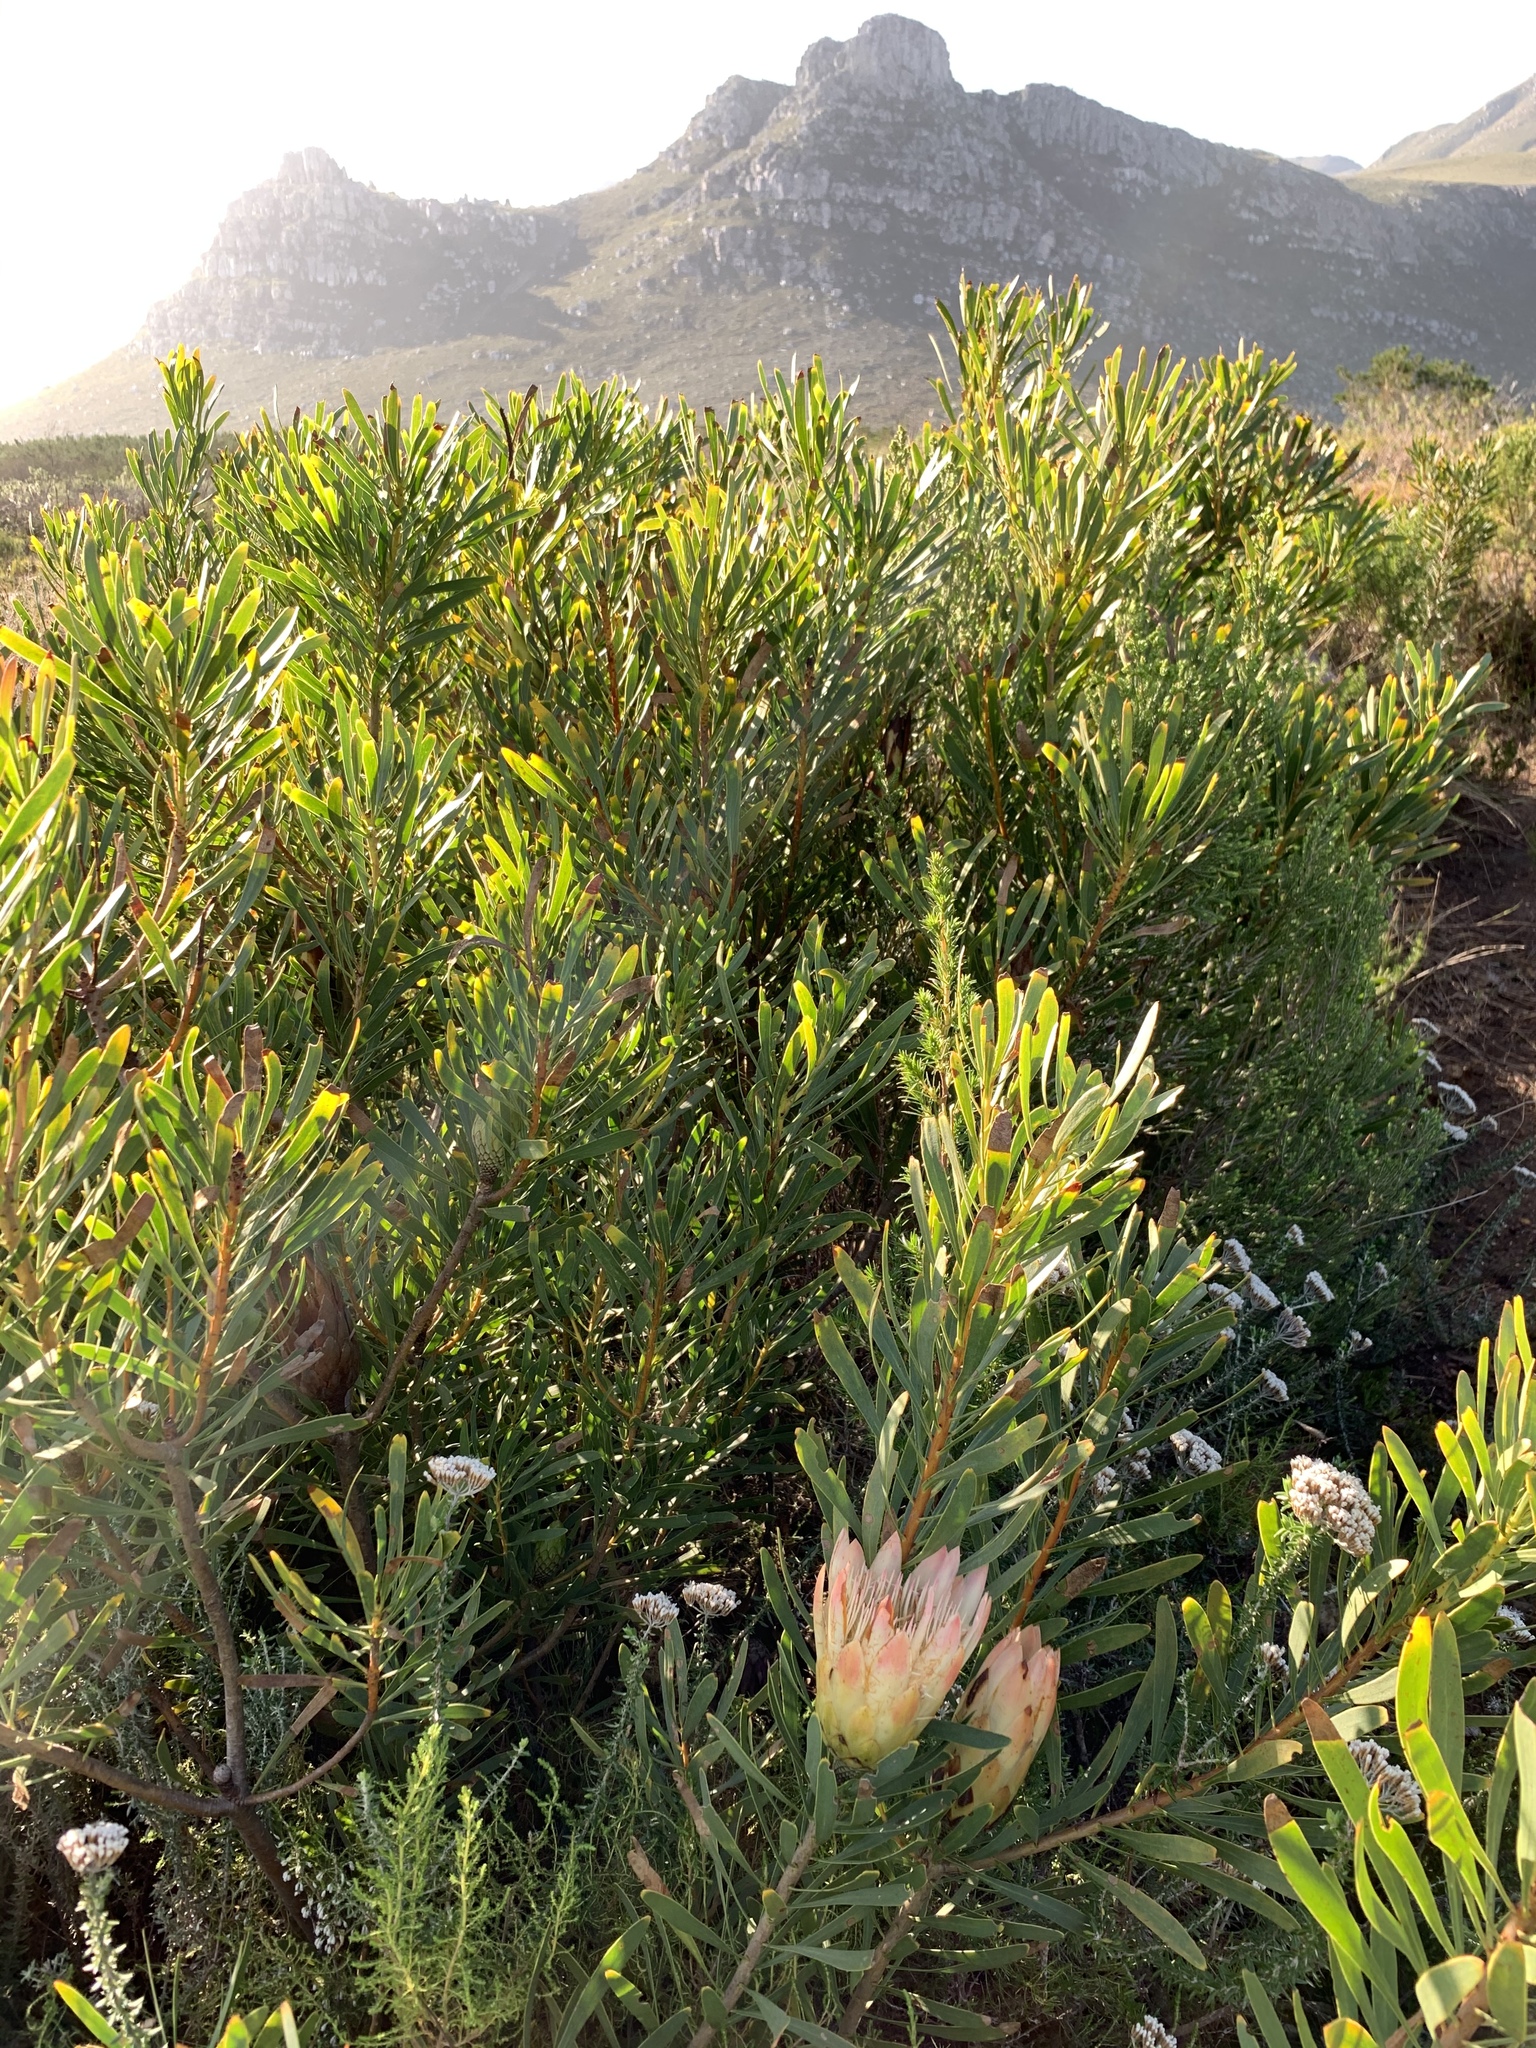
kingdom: Plantae
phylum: Tracheophyta
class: Magnoliopsida
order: Proteales
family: Proteaceae
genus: Protea
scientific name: Protea repens
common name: Sugarbush
